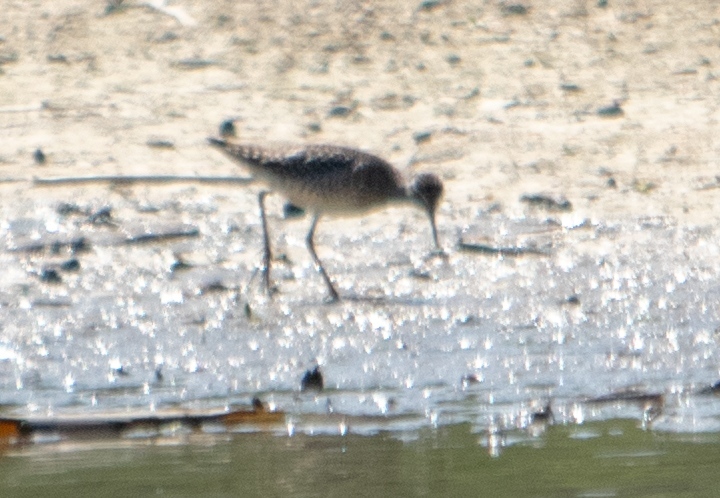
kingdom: Animalia
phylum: Chordata
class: Aves
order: Charadriiformes
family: Scolopacidae
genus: Tringa
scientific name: Tringa glareola
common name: Wood sandpiper
